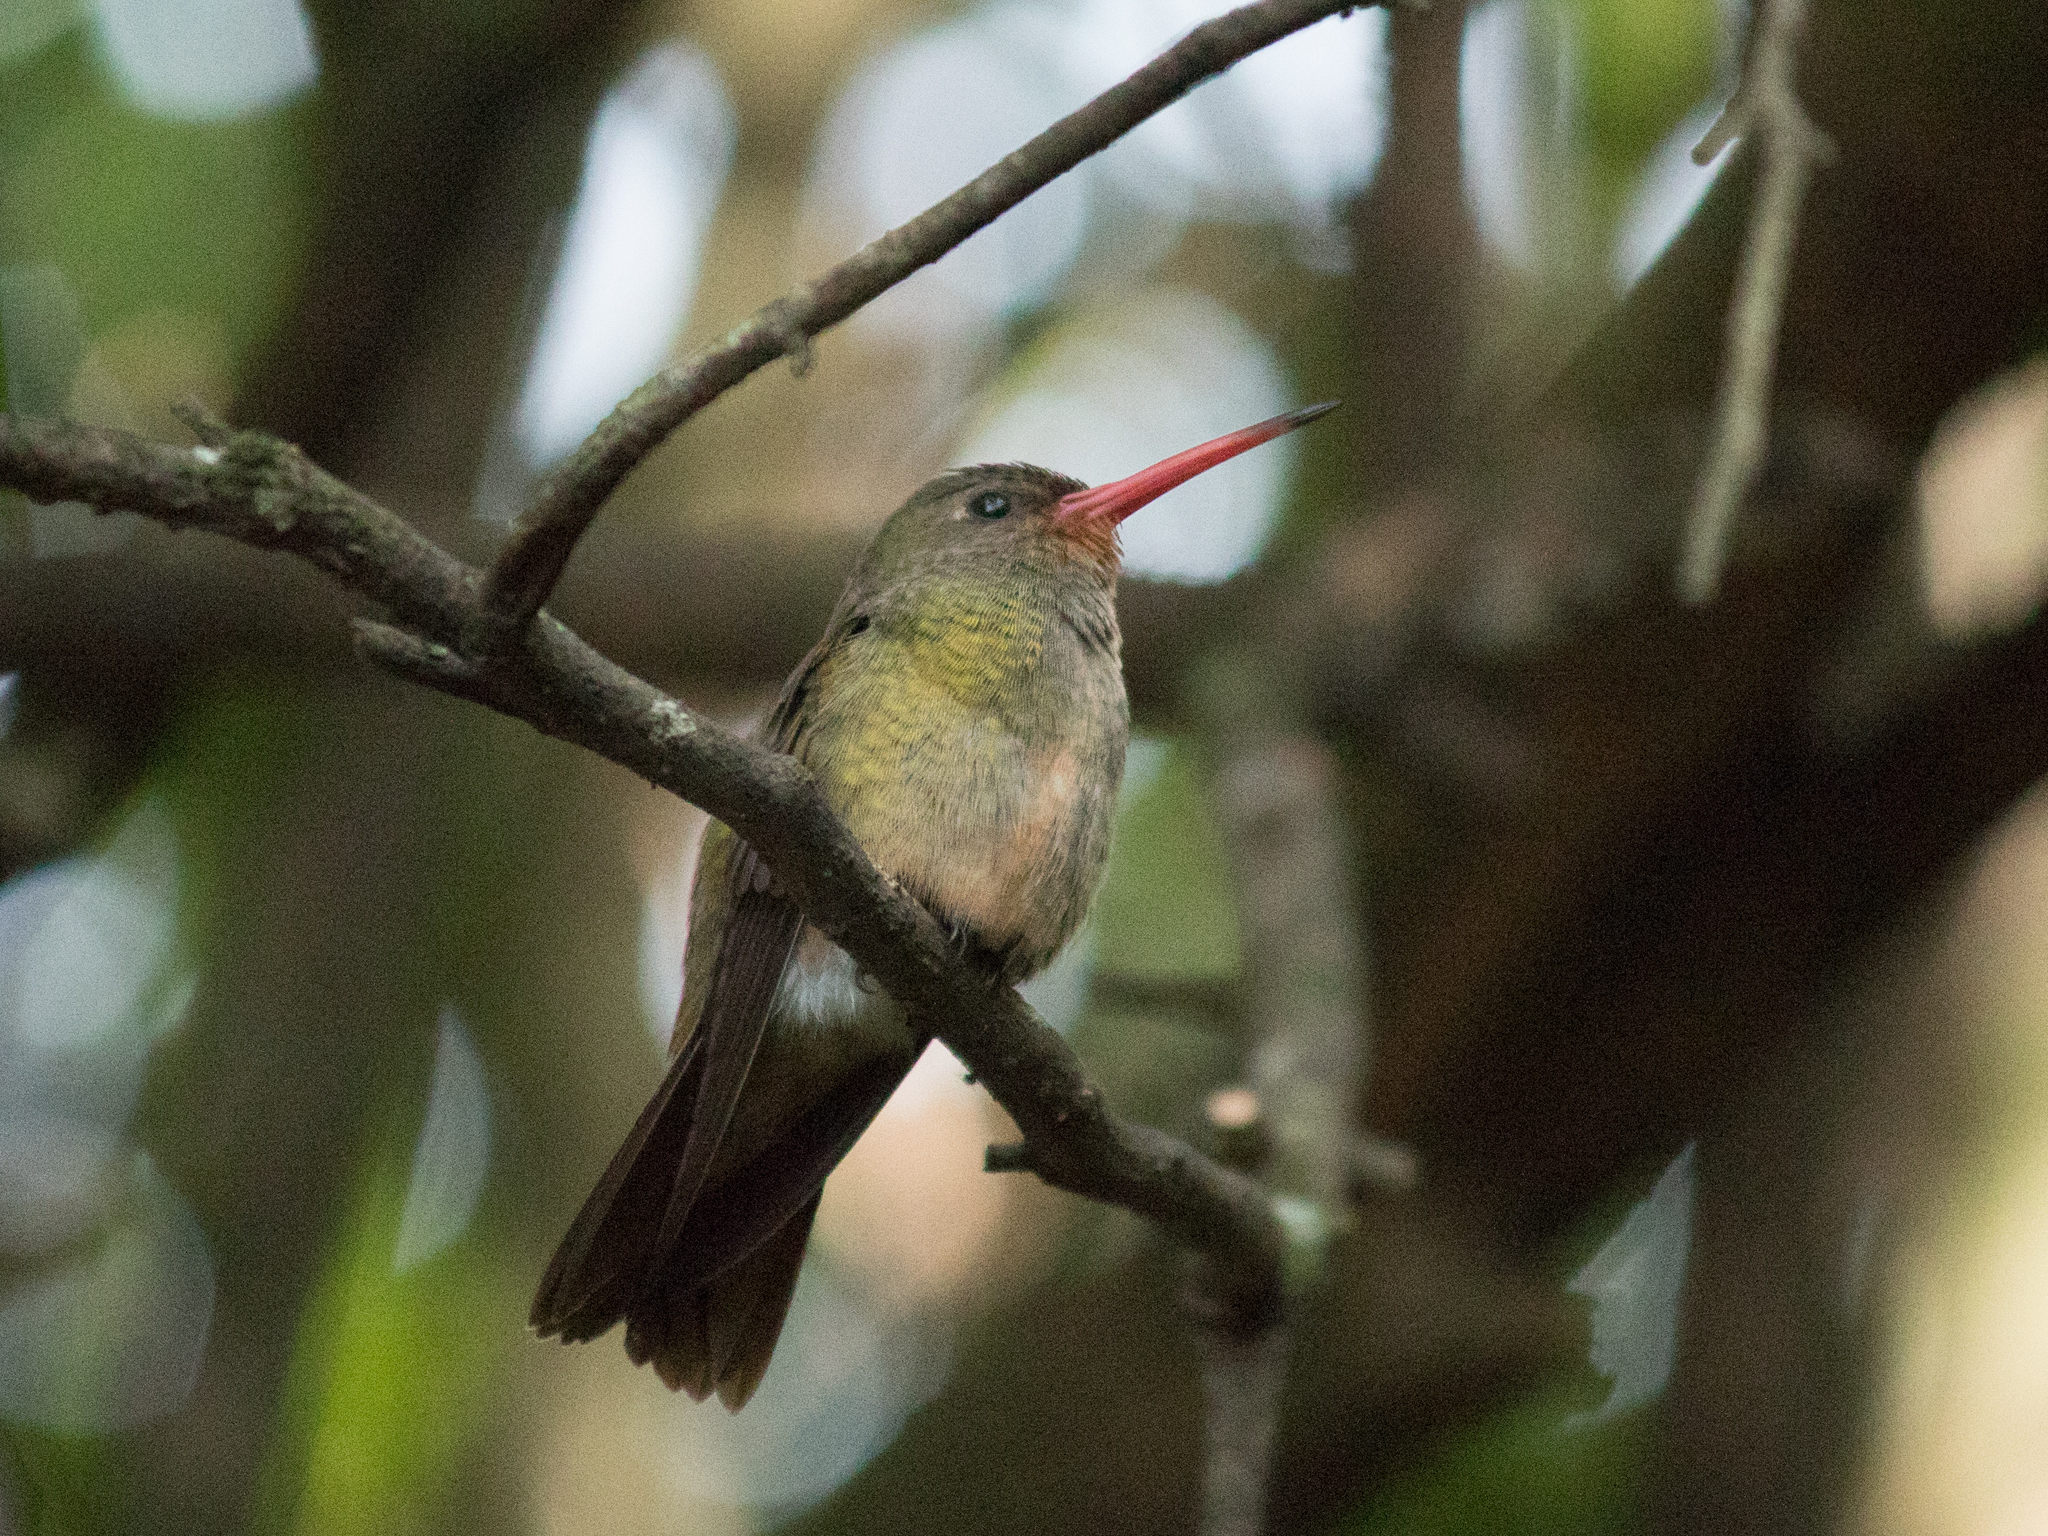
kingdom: Animalia
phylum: Chordata
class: Aves
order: Apodiformes
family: Trochilidae
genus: Hylocharis
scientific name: Hylocharis chrysura
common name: Gilded sapphire
